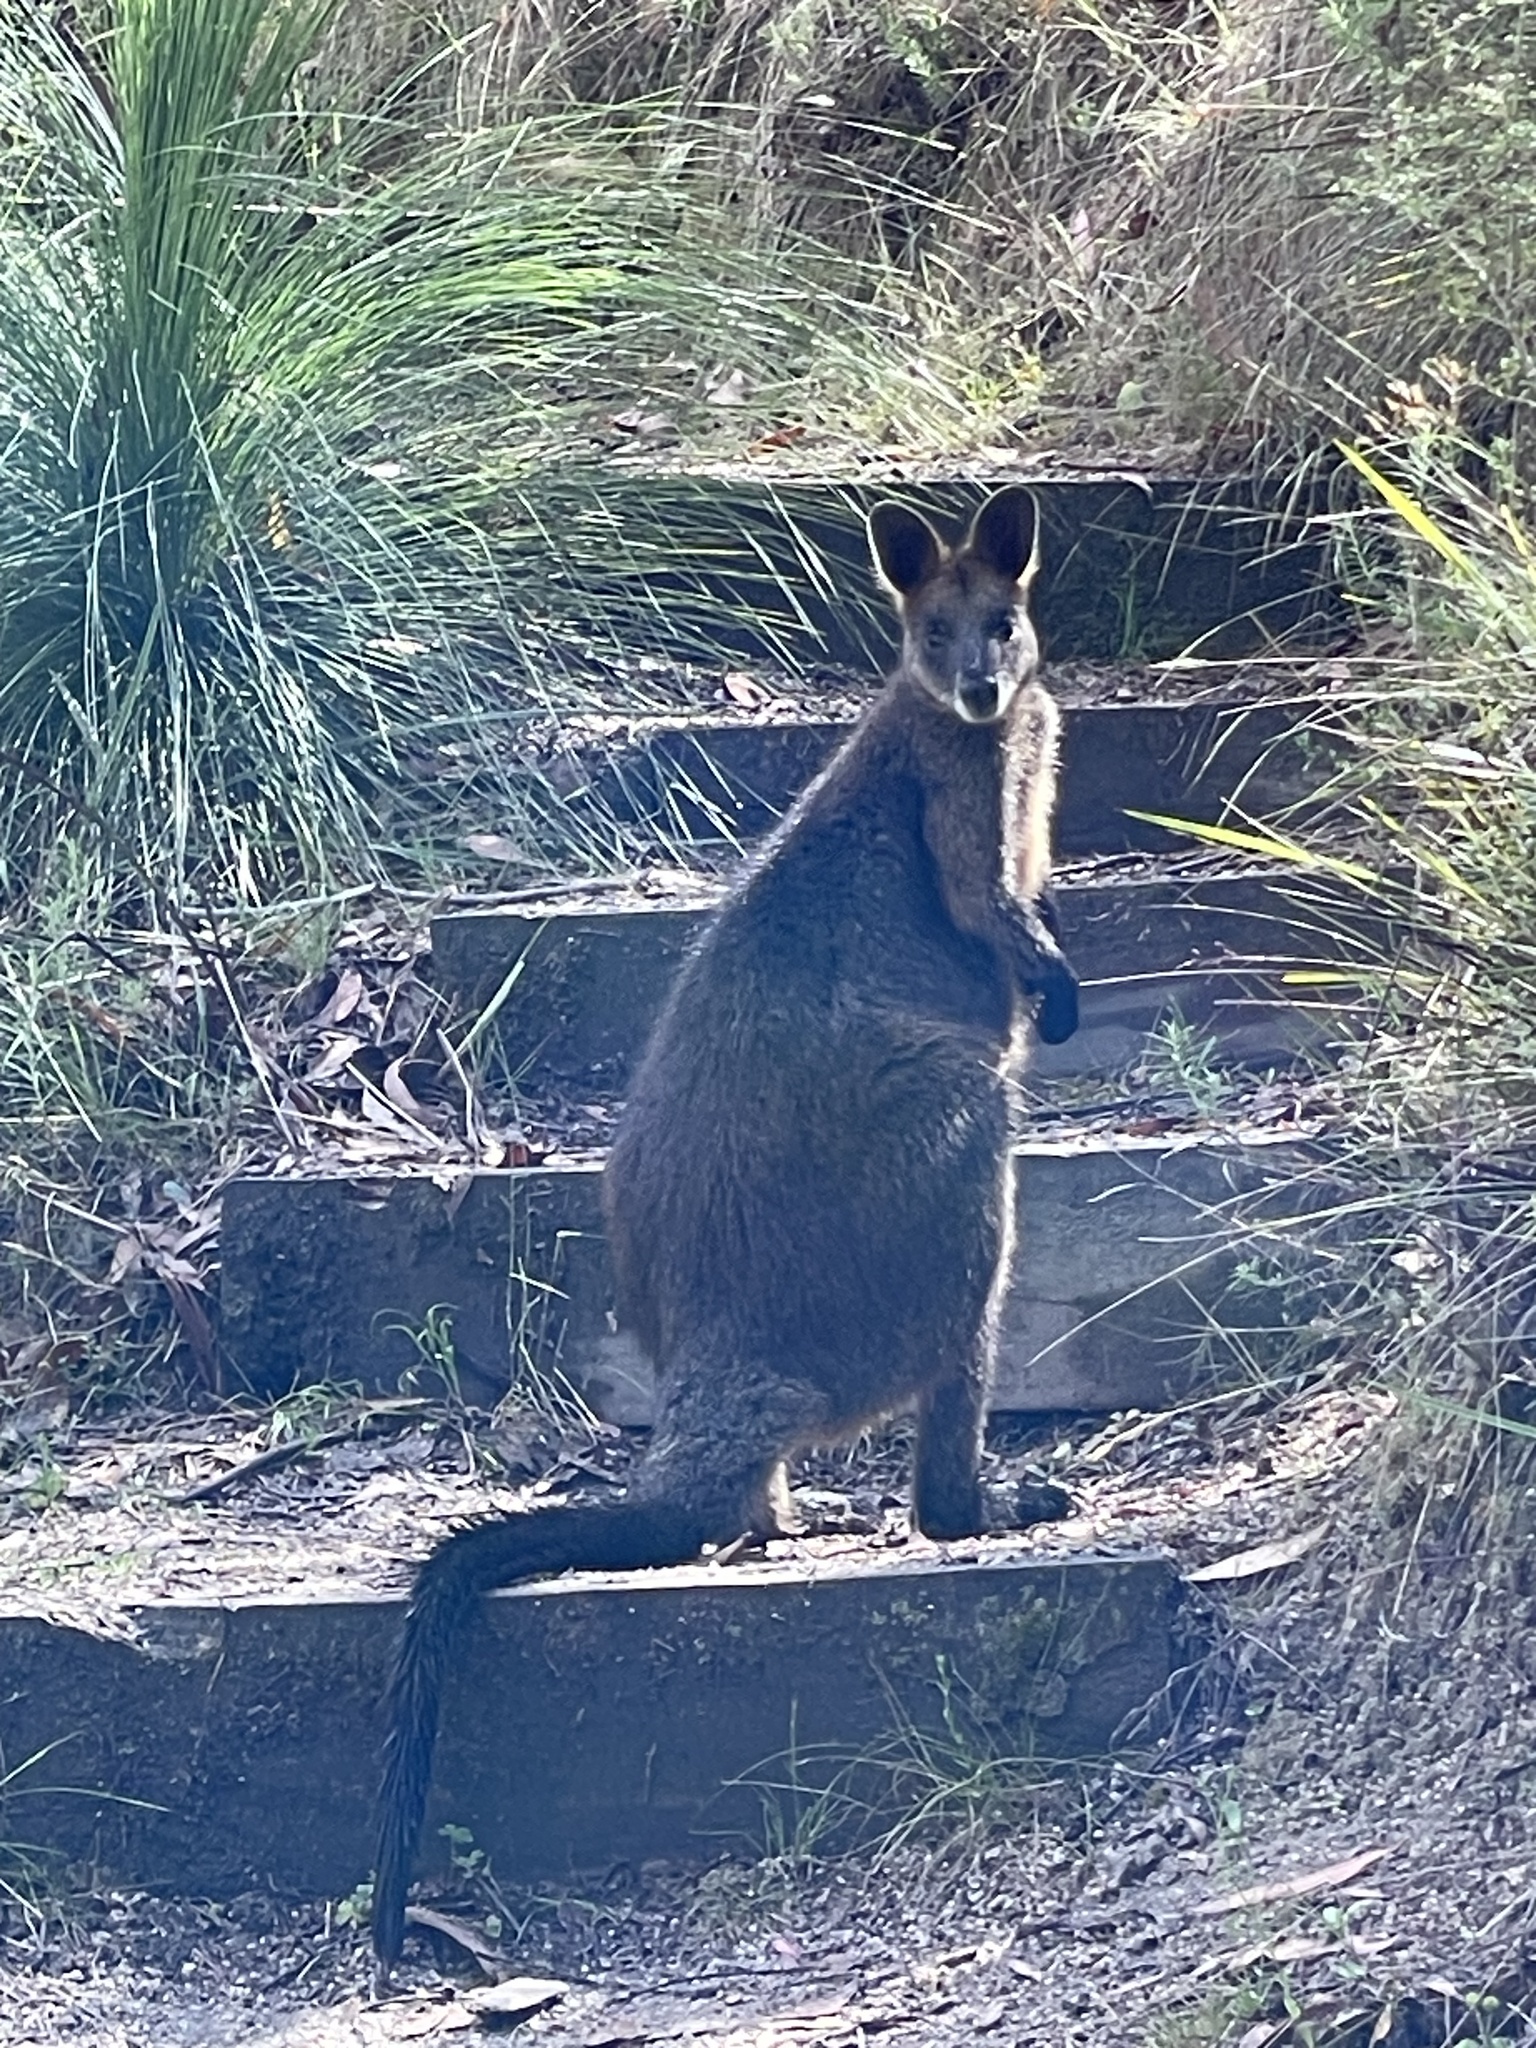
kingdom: Animalia
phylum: Chordata
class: Mammalia
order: Diprotodontia
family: Macropodidae
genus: Wallabia
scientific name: Wallabia bicolor
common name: Swamp wallaby
